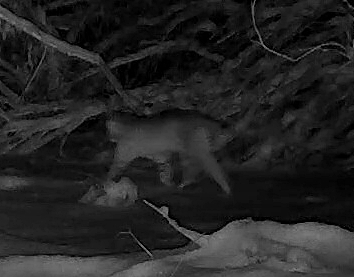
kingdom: Animalia
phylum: Chordata
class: Mammalia
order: Carnivora
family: Felidae
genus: Lynx
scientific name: Lynx rufus
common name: Bobcat
